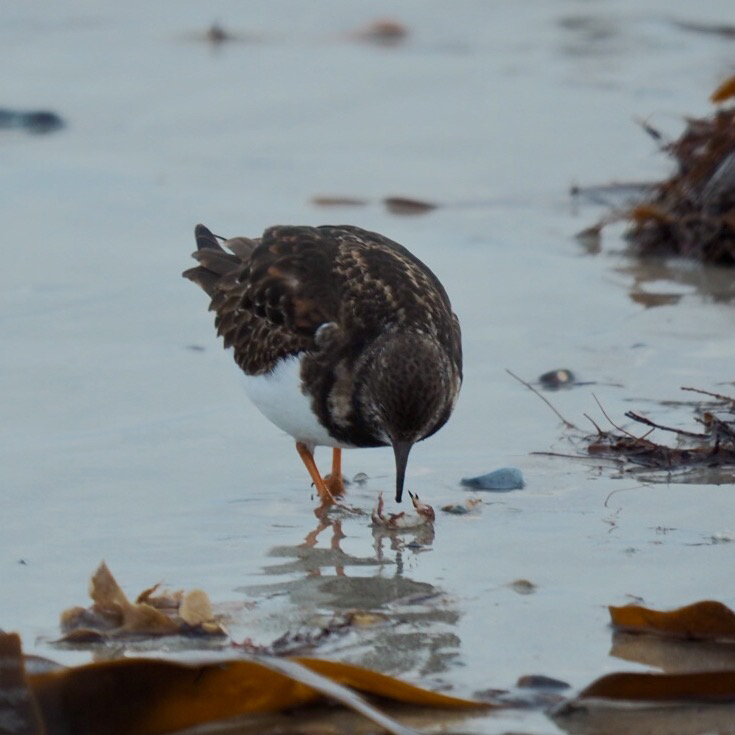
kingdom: Animalia
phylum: Chordata
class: Aves
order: Charadriiformes
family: Scolopacidae
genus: Arenaria
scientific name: Arenaria interpres
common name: Ruddy turnstone
